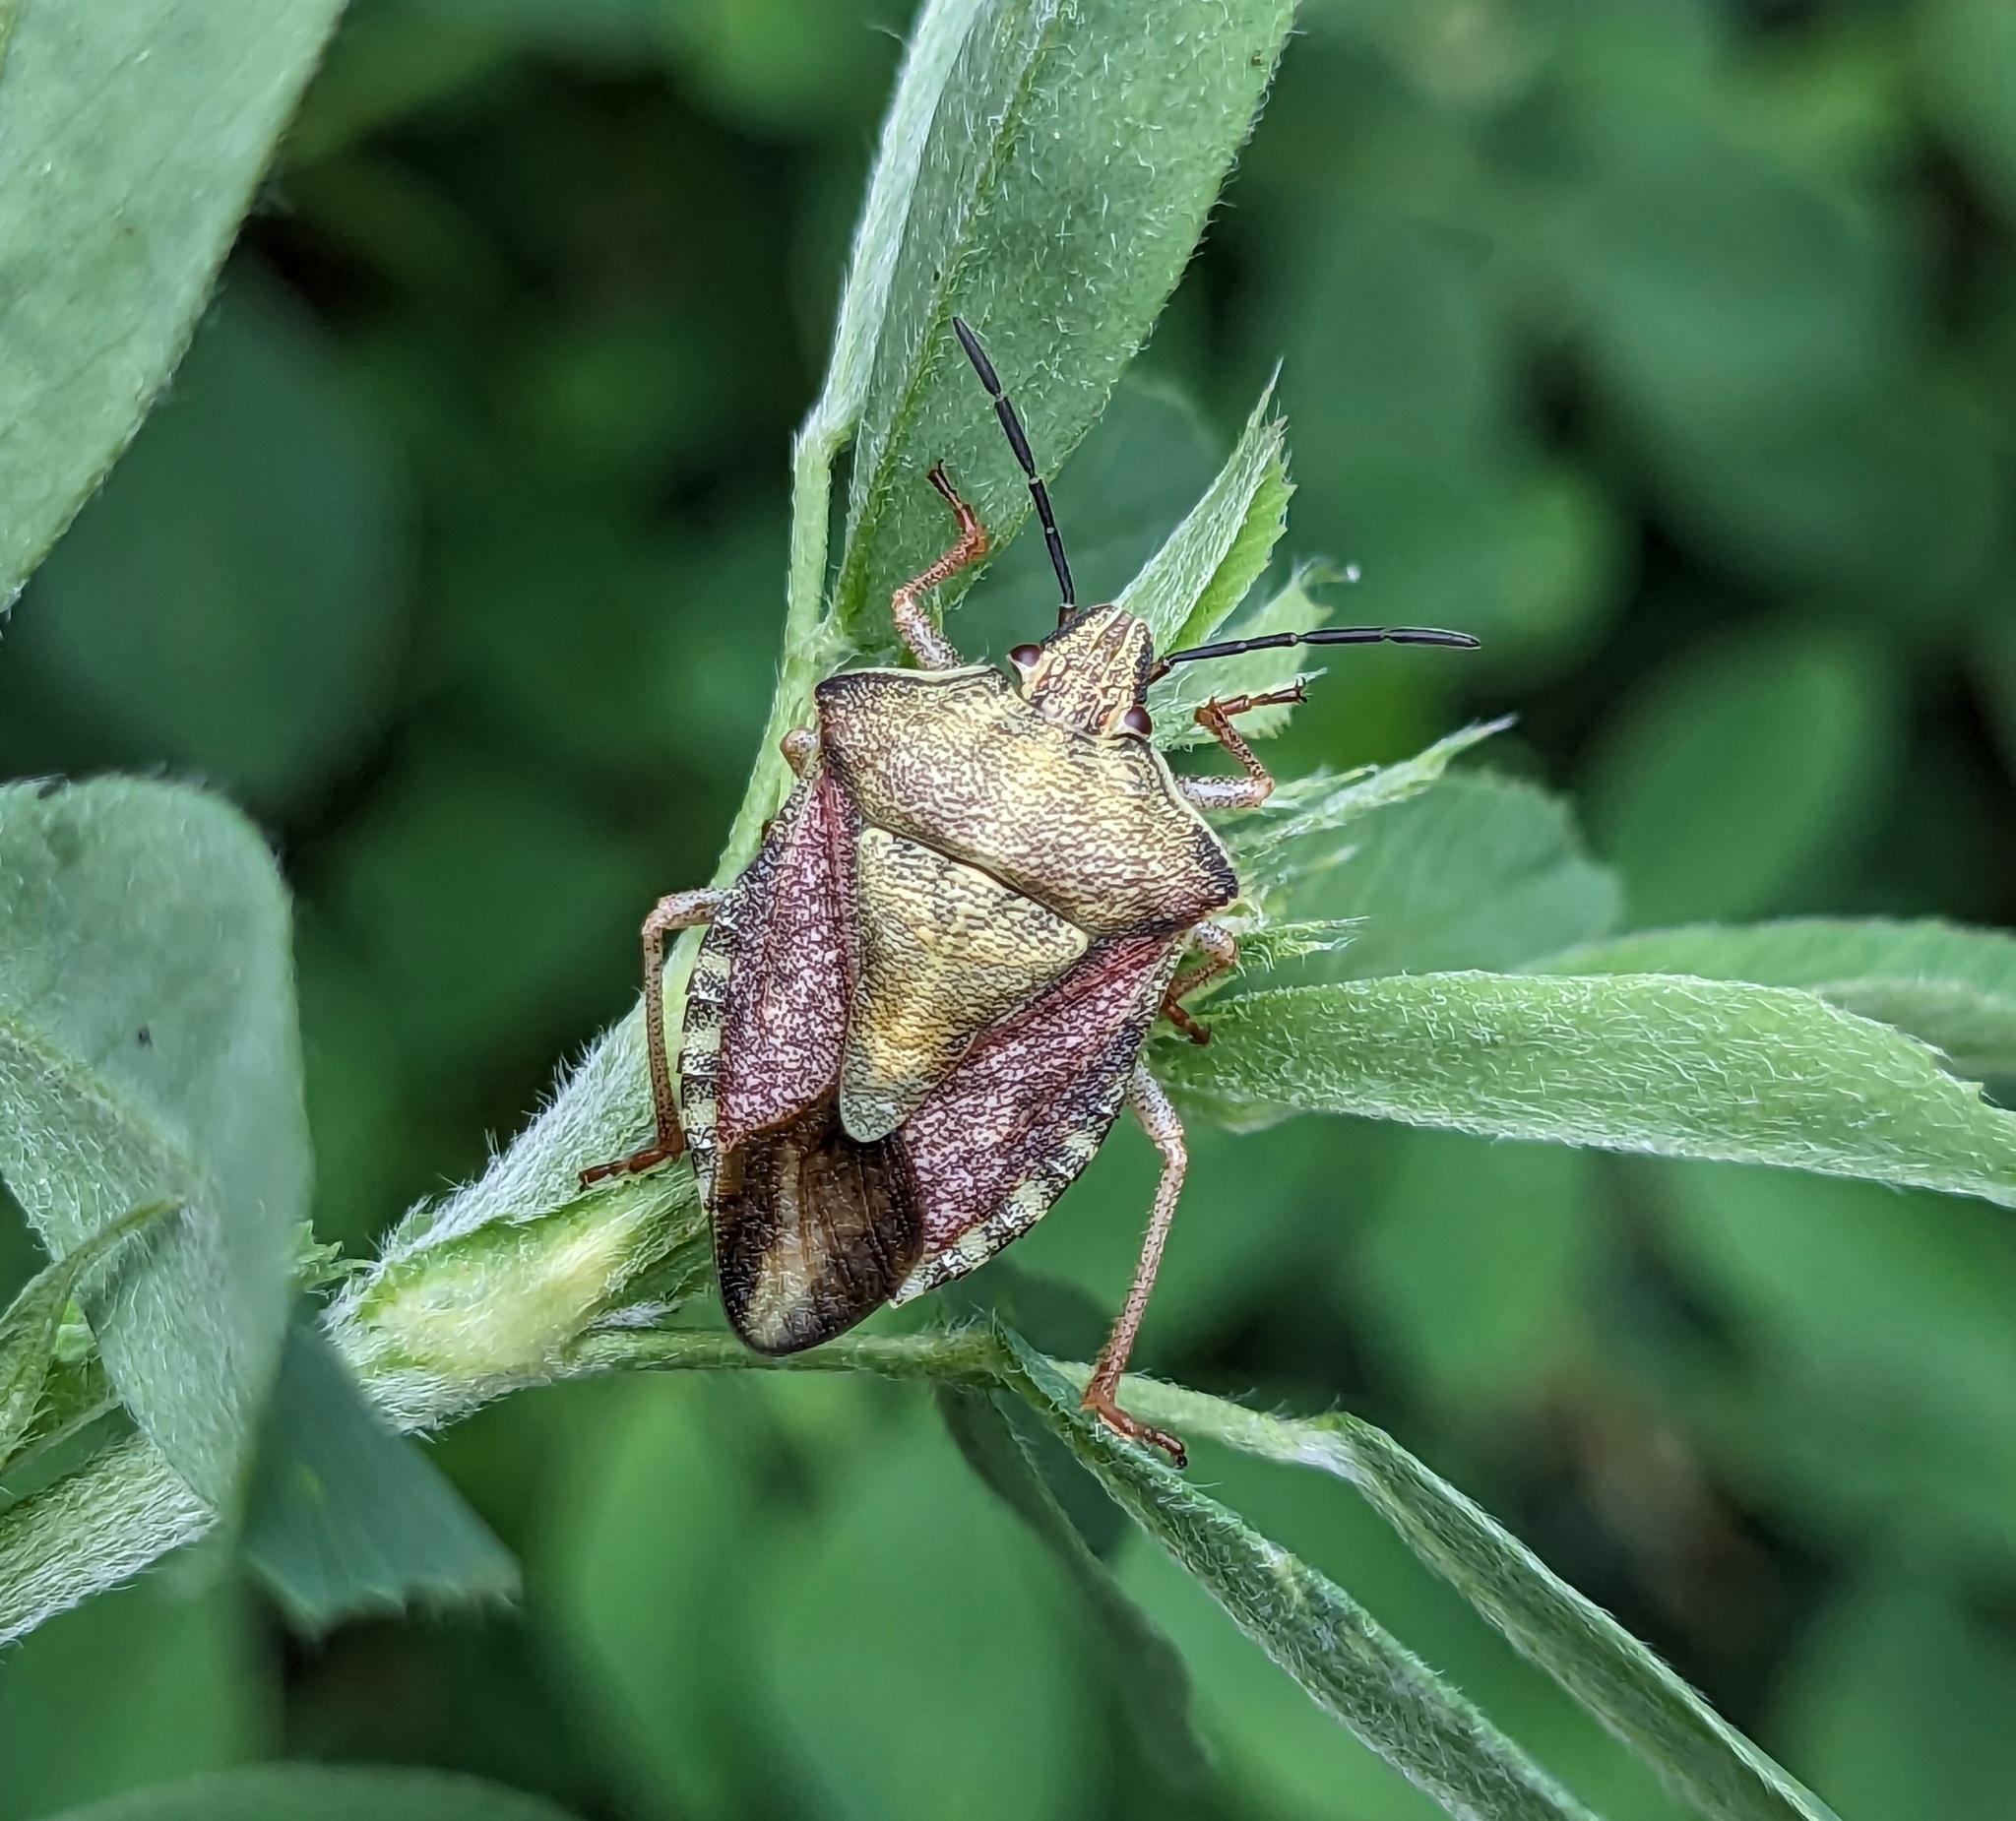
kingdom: Animalia
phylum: Arthropoda
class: Insecta
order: Hemiptera
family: Pentatomidae
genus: Carpocoris
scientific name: Carpocoris purpureipennis
